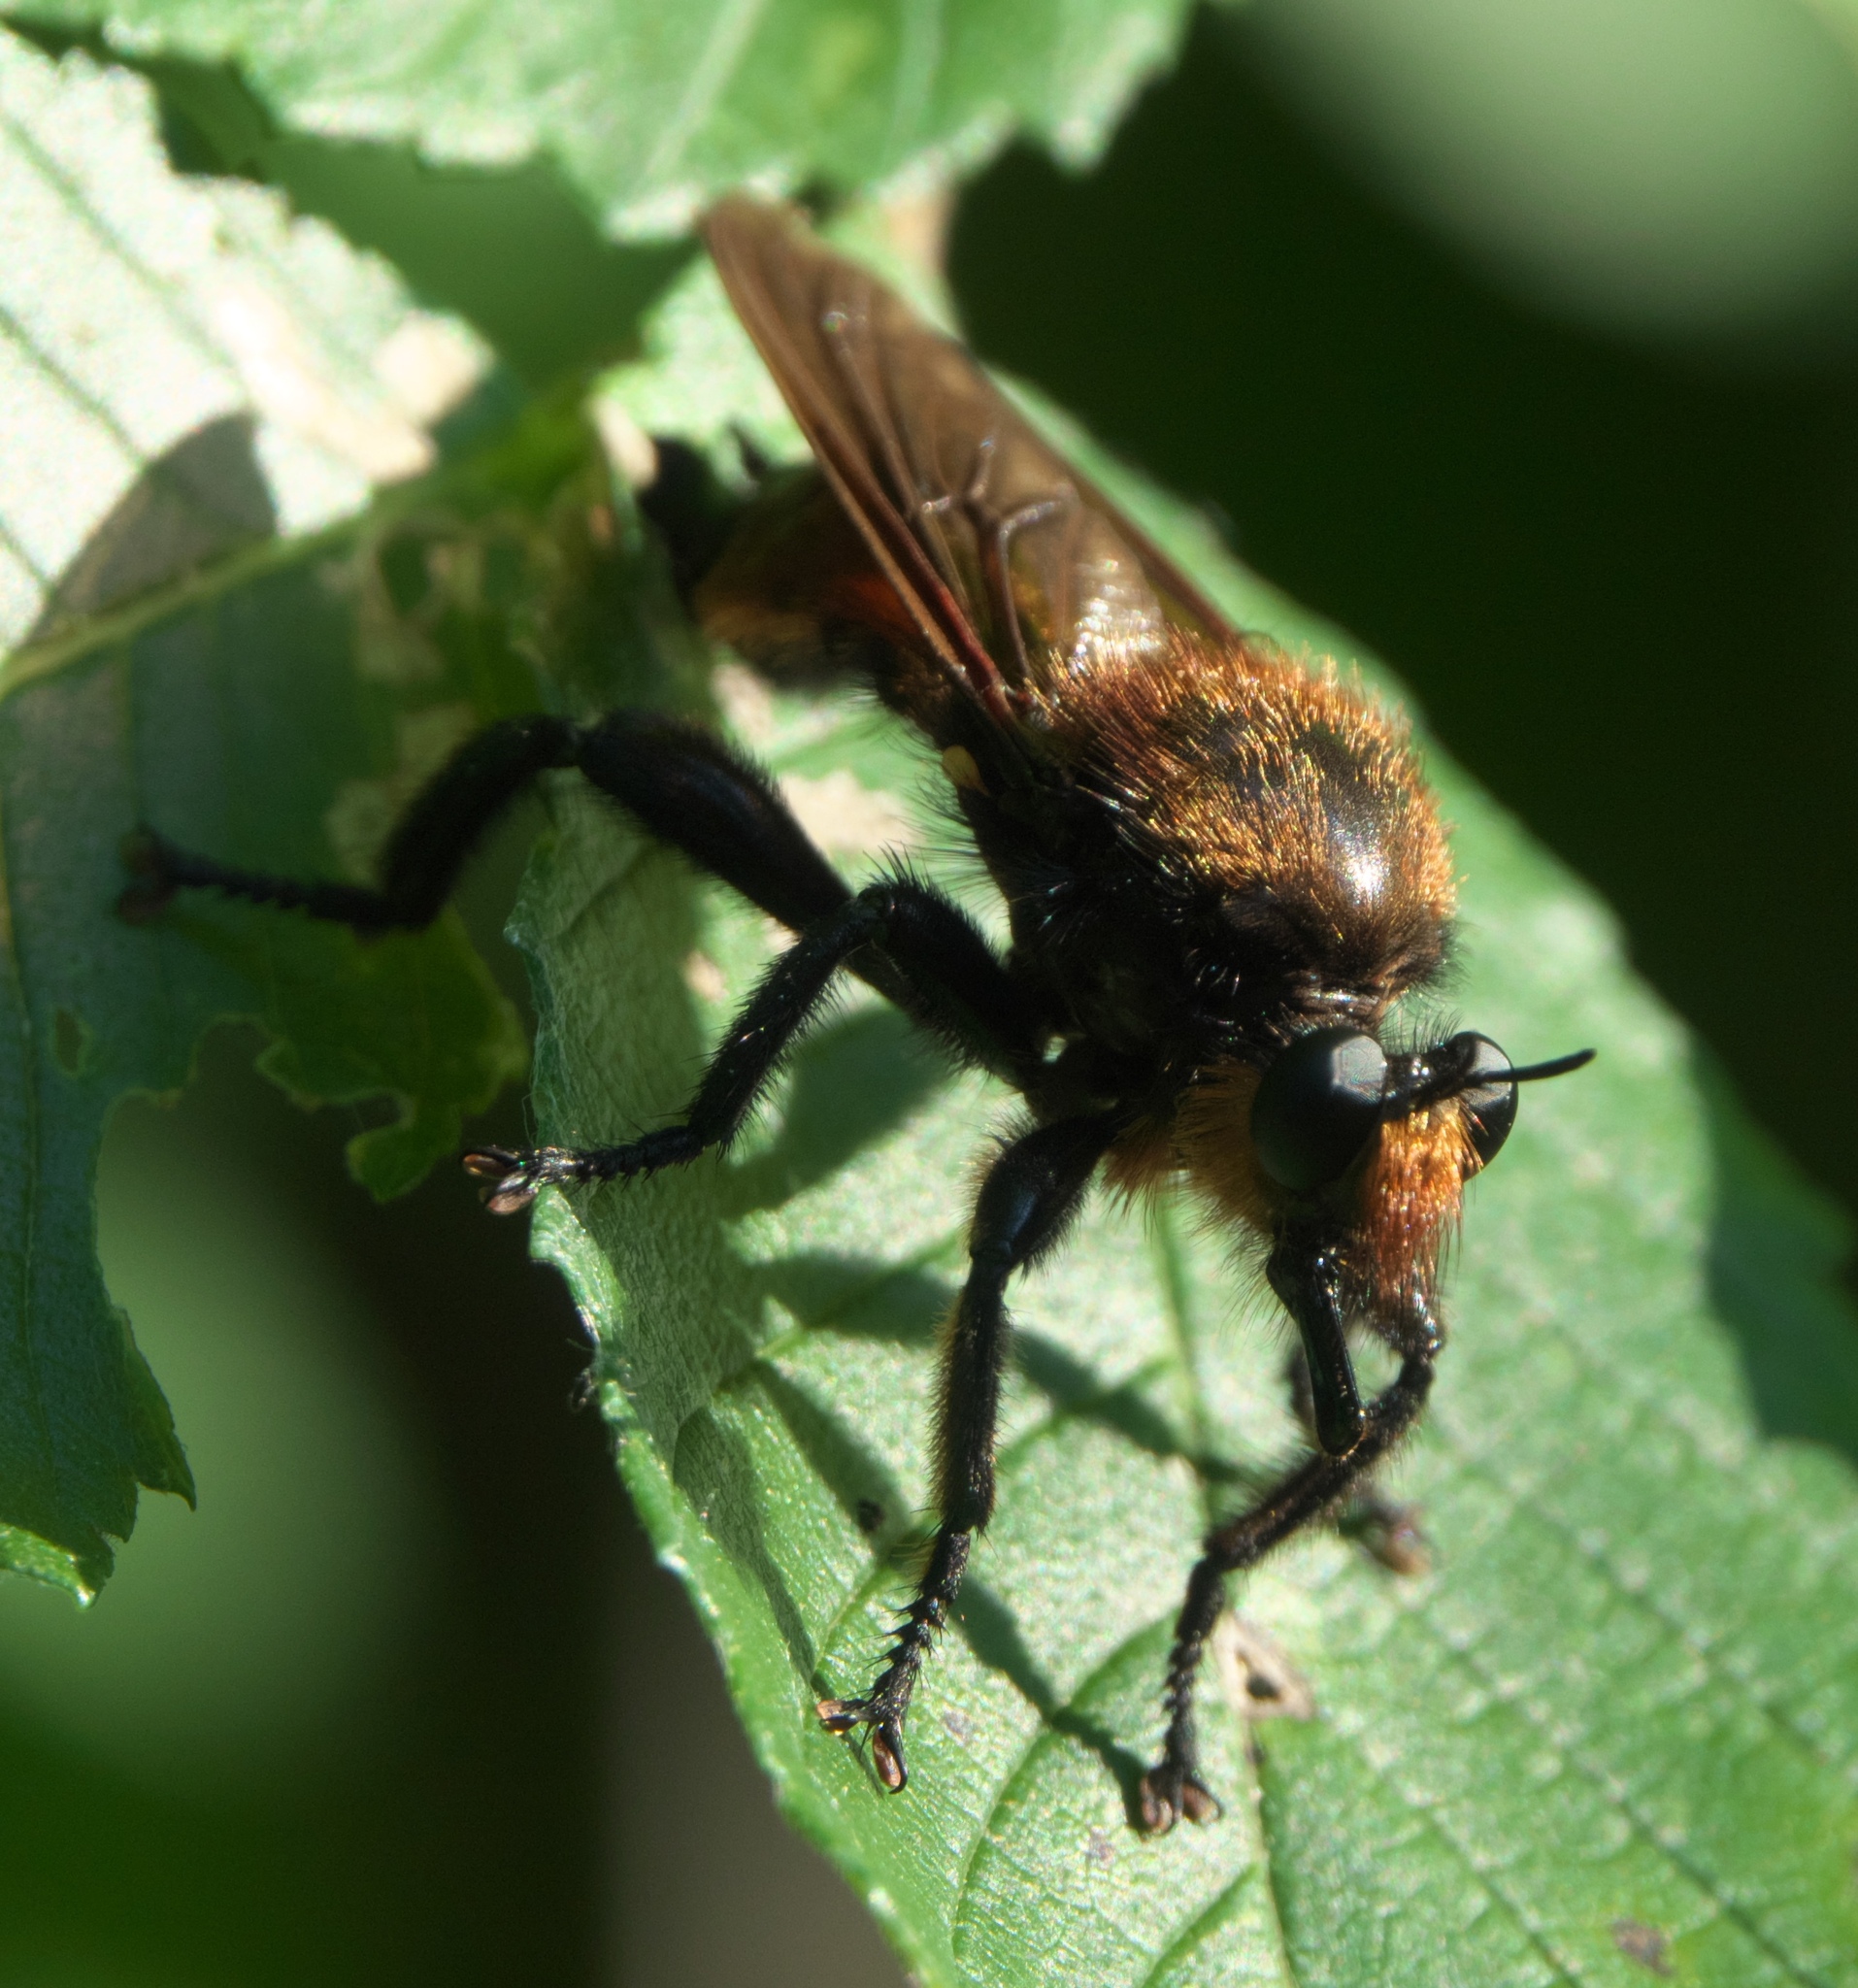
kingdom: Animalia
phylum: Arthropoda
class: Insecta
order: Diptera
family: Asilidae
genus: Laphria
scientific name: Laphria lata
